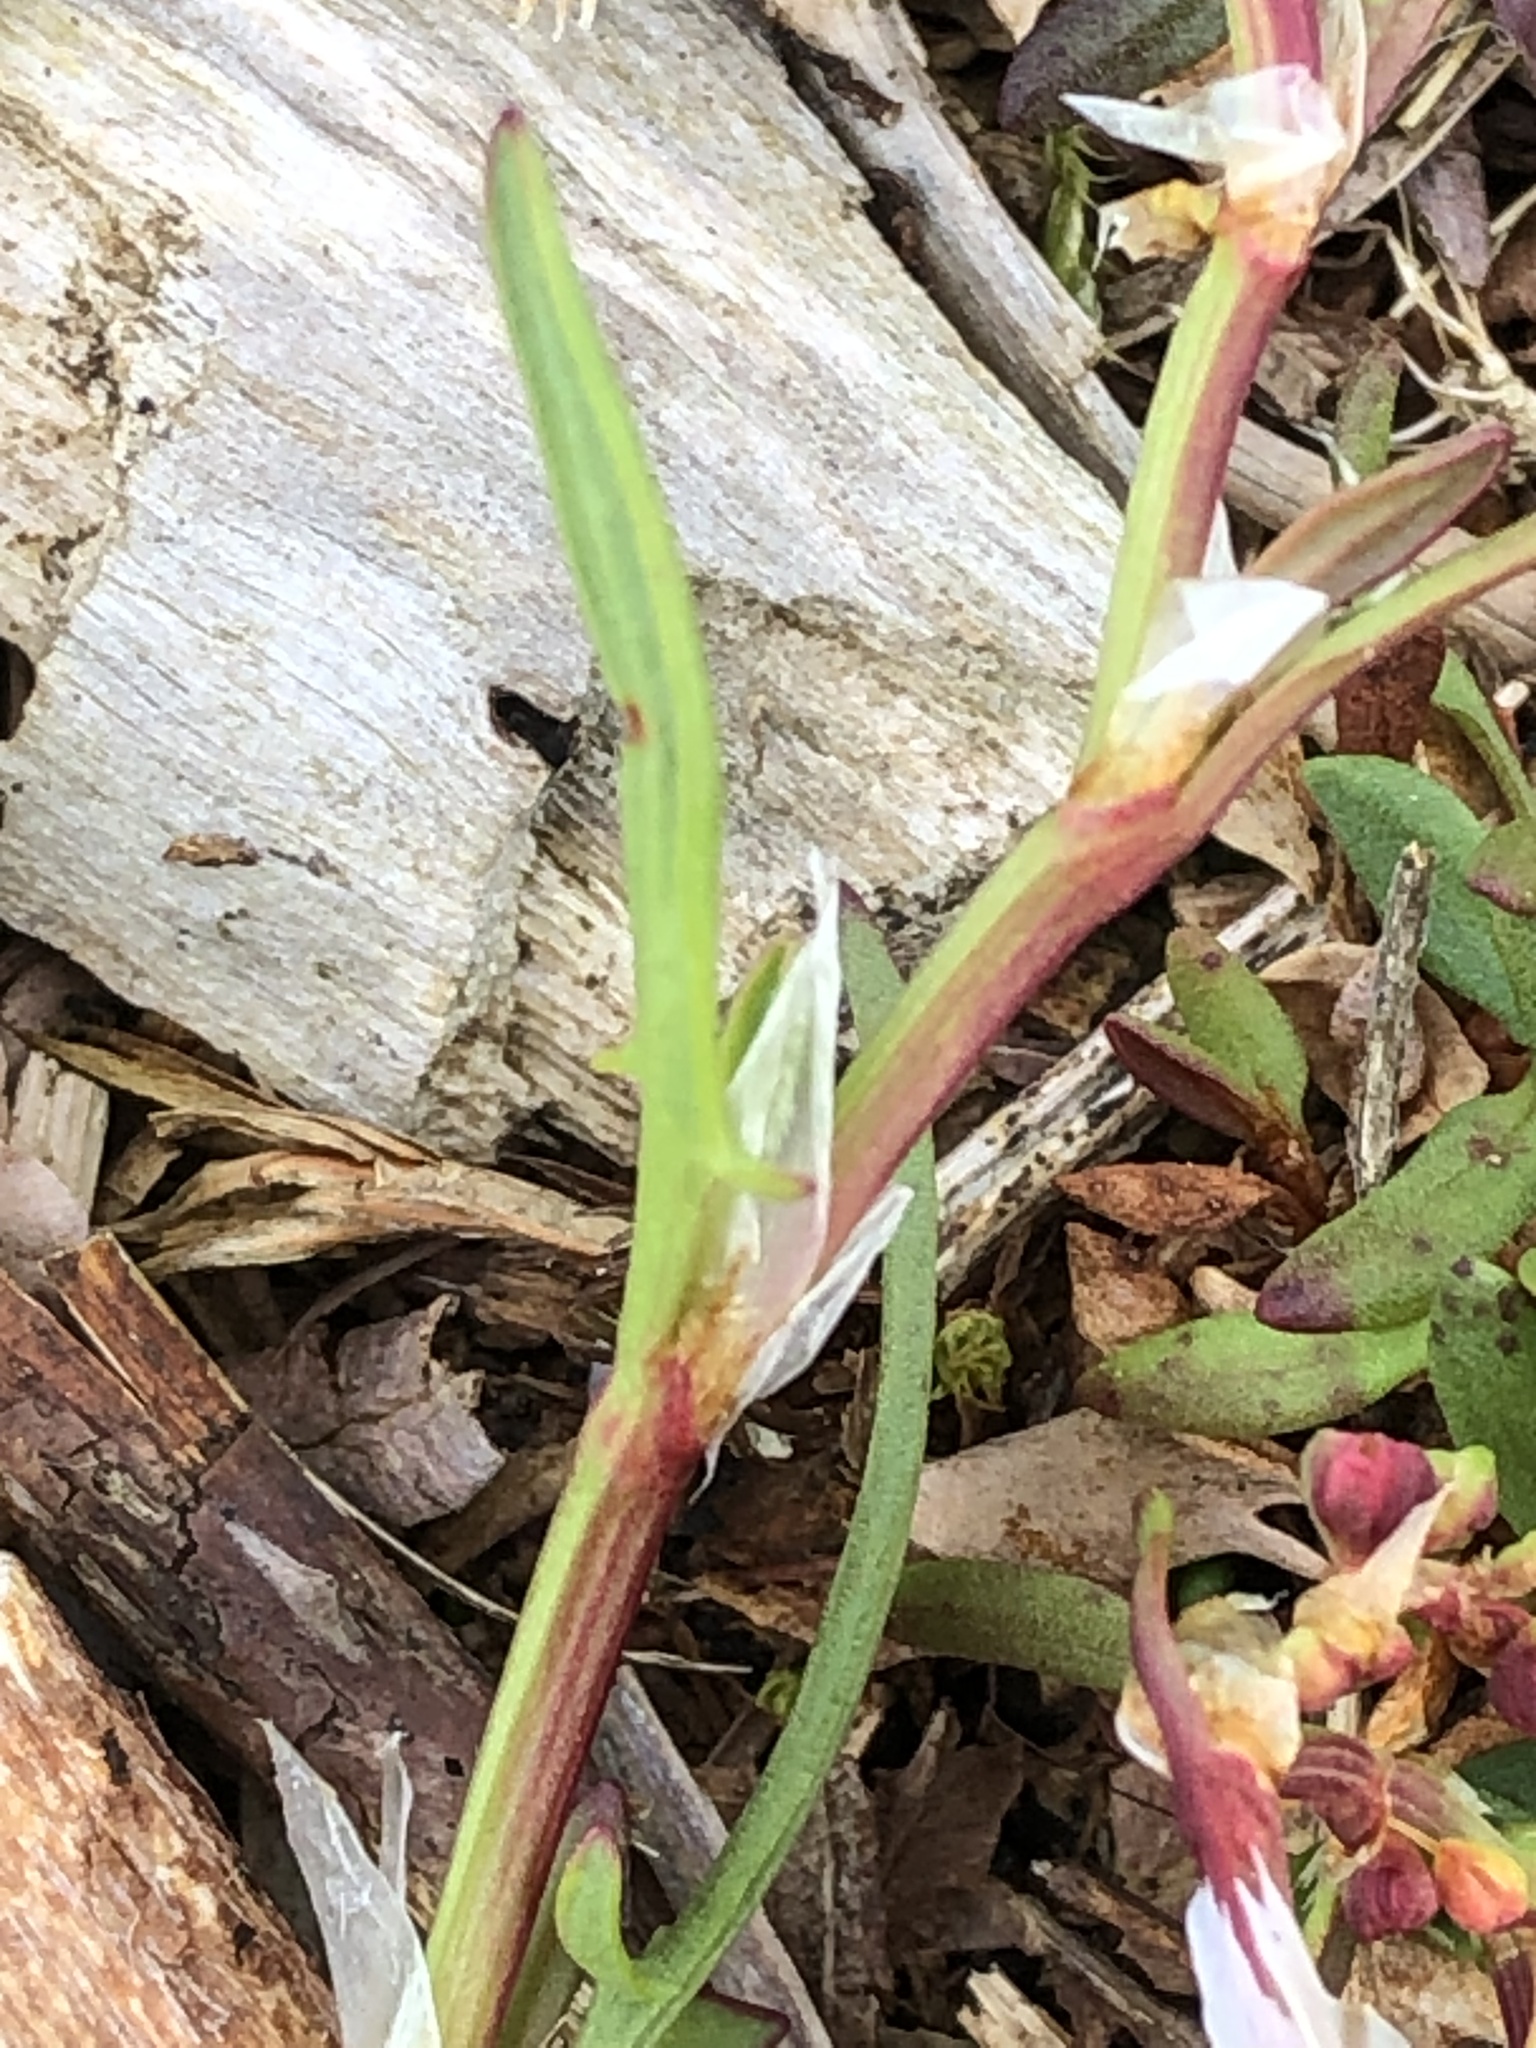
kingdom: Plantae
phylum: Tracheophyta
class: Magnoliopsida
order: Caryophyllales
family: Polygonaceae
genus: Rumex
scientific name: Rumex acetosella
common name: Common sheep sorrel
